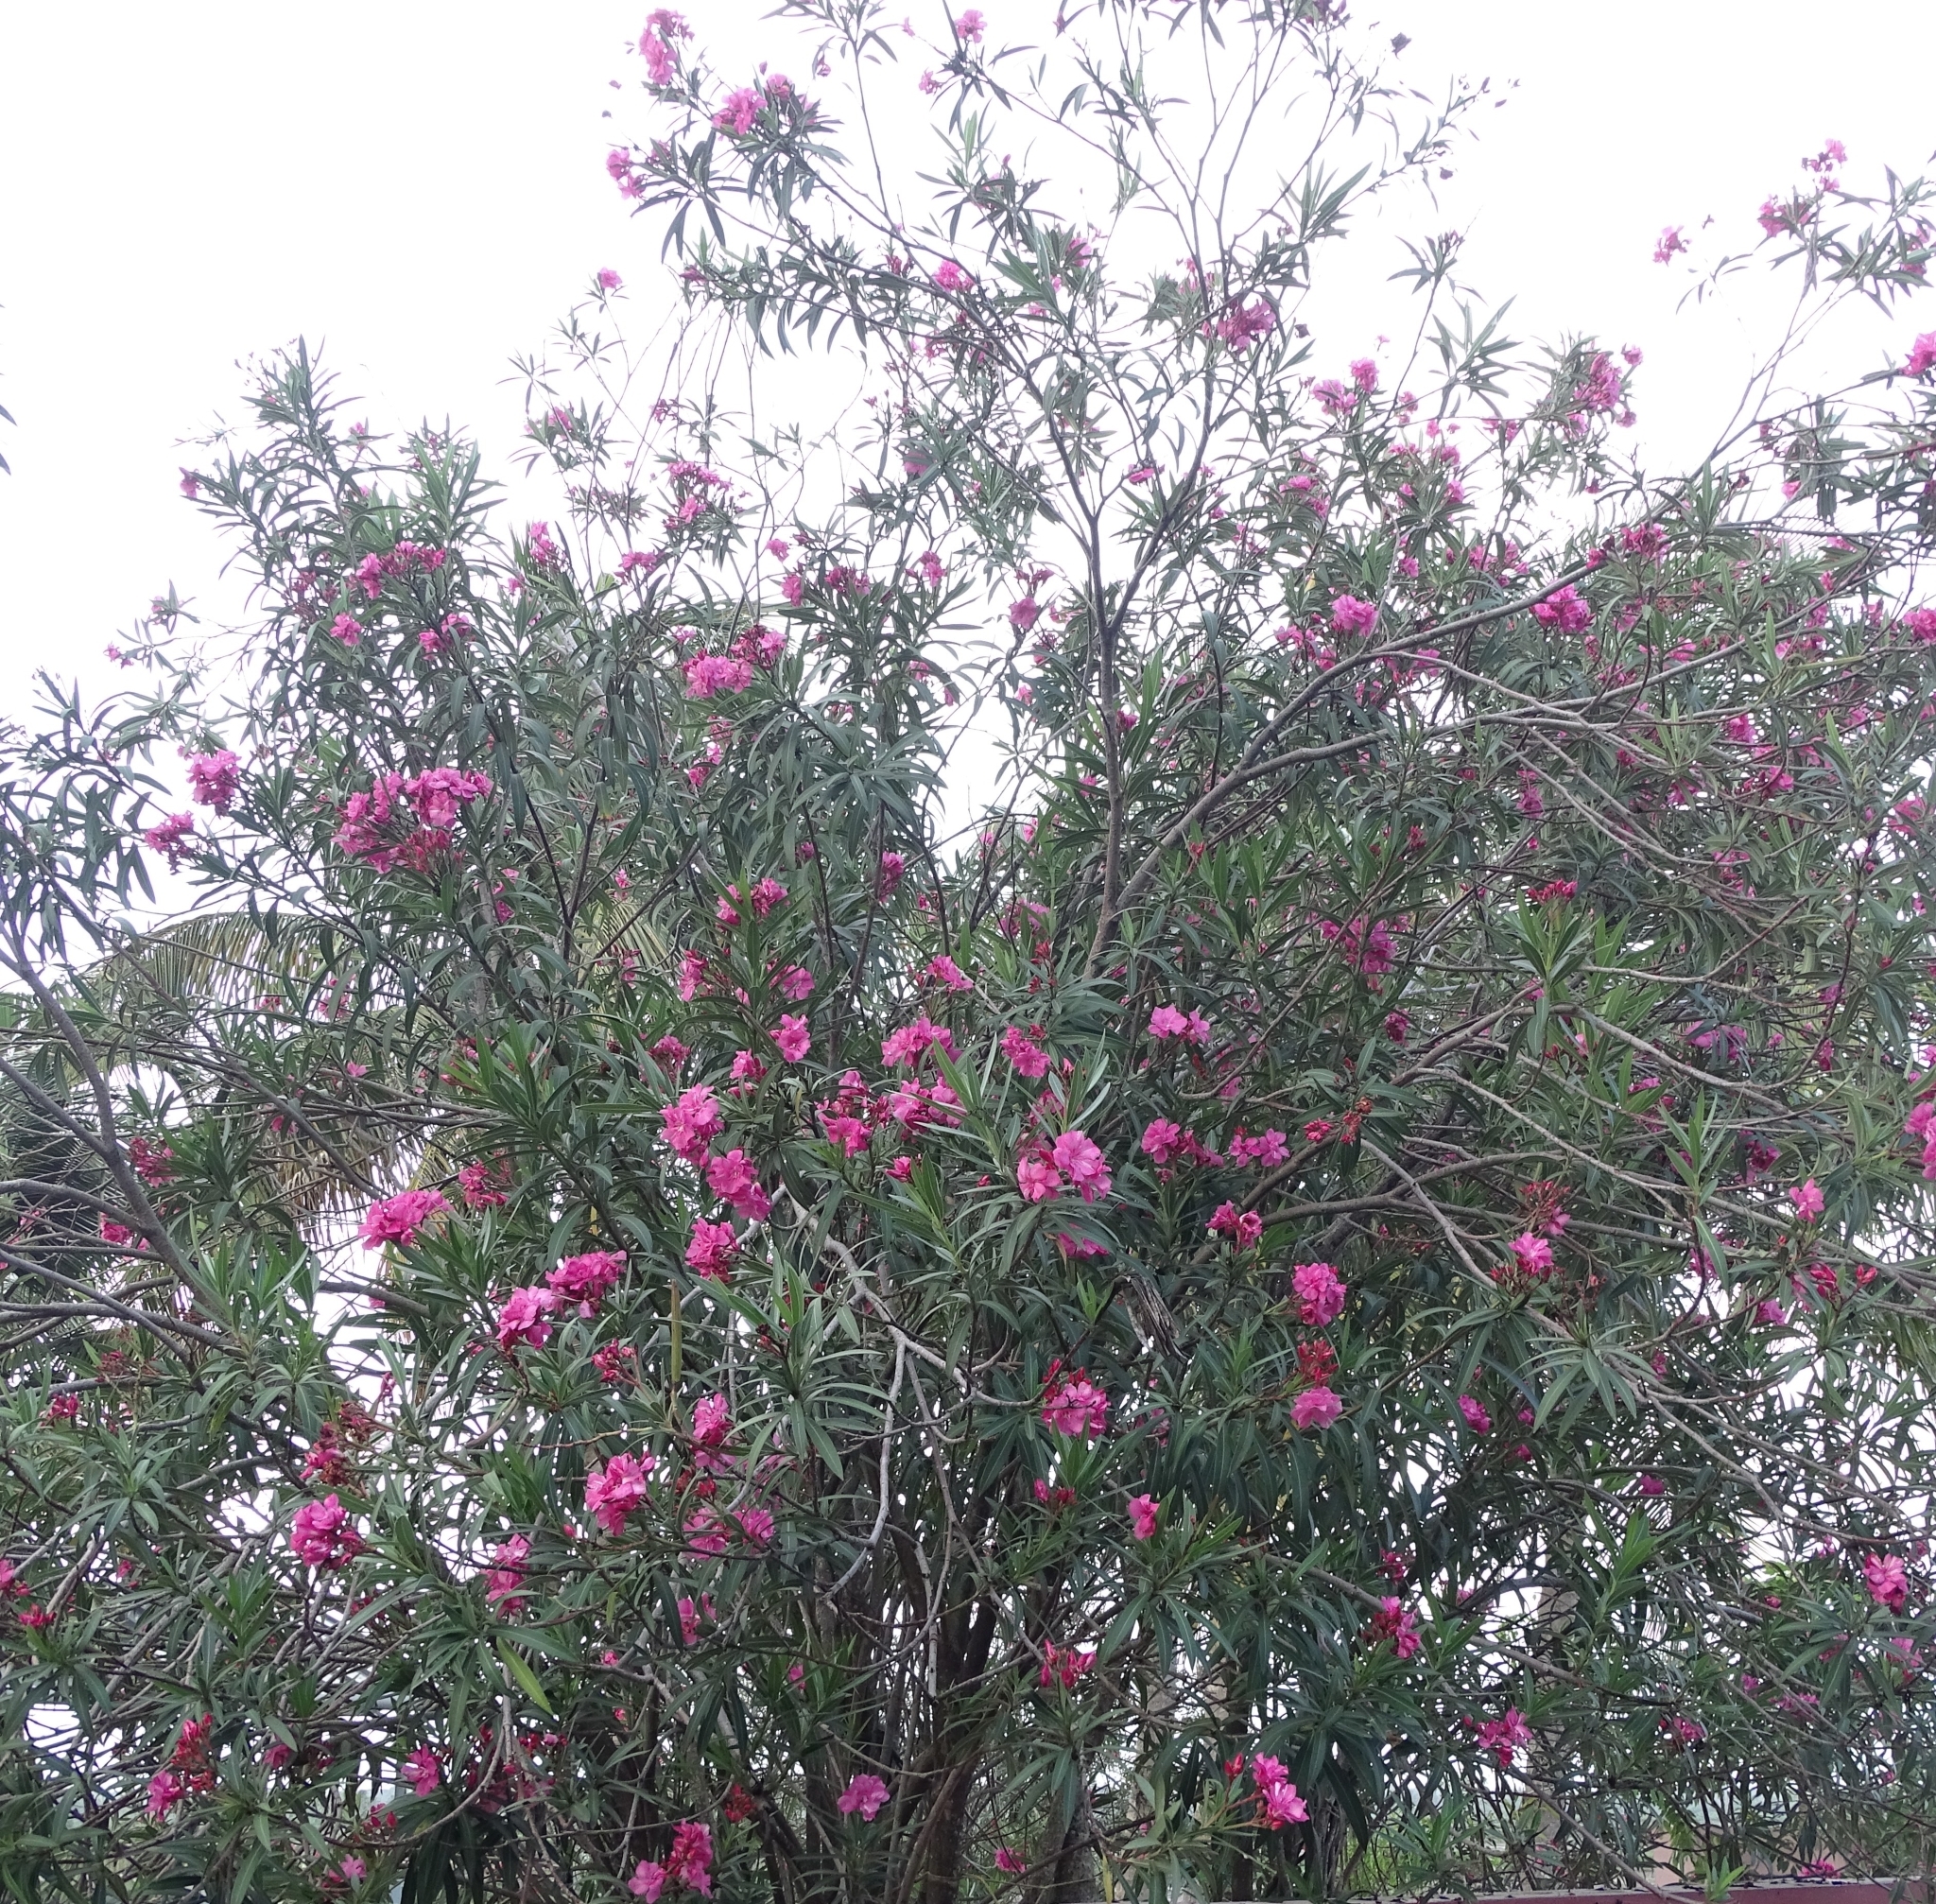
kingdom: Plantae
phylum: Tracheophyta
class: Magnoliopsida
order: Gentianales
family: Apocynaceae
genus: Nerium
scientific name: Nerium oleander
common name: Oleander
